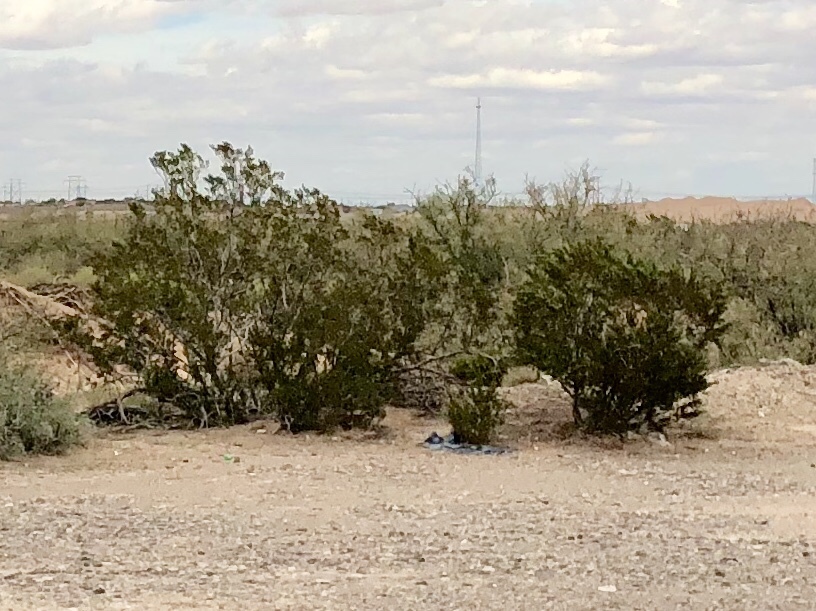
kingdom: Plantae
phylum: Tracheophyta
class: Magnoliopsida
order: Zygophyllales
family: Zygophyllaceae
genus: Larrea
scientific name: Larrea tridentata
